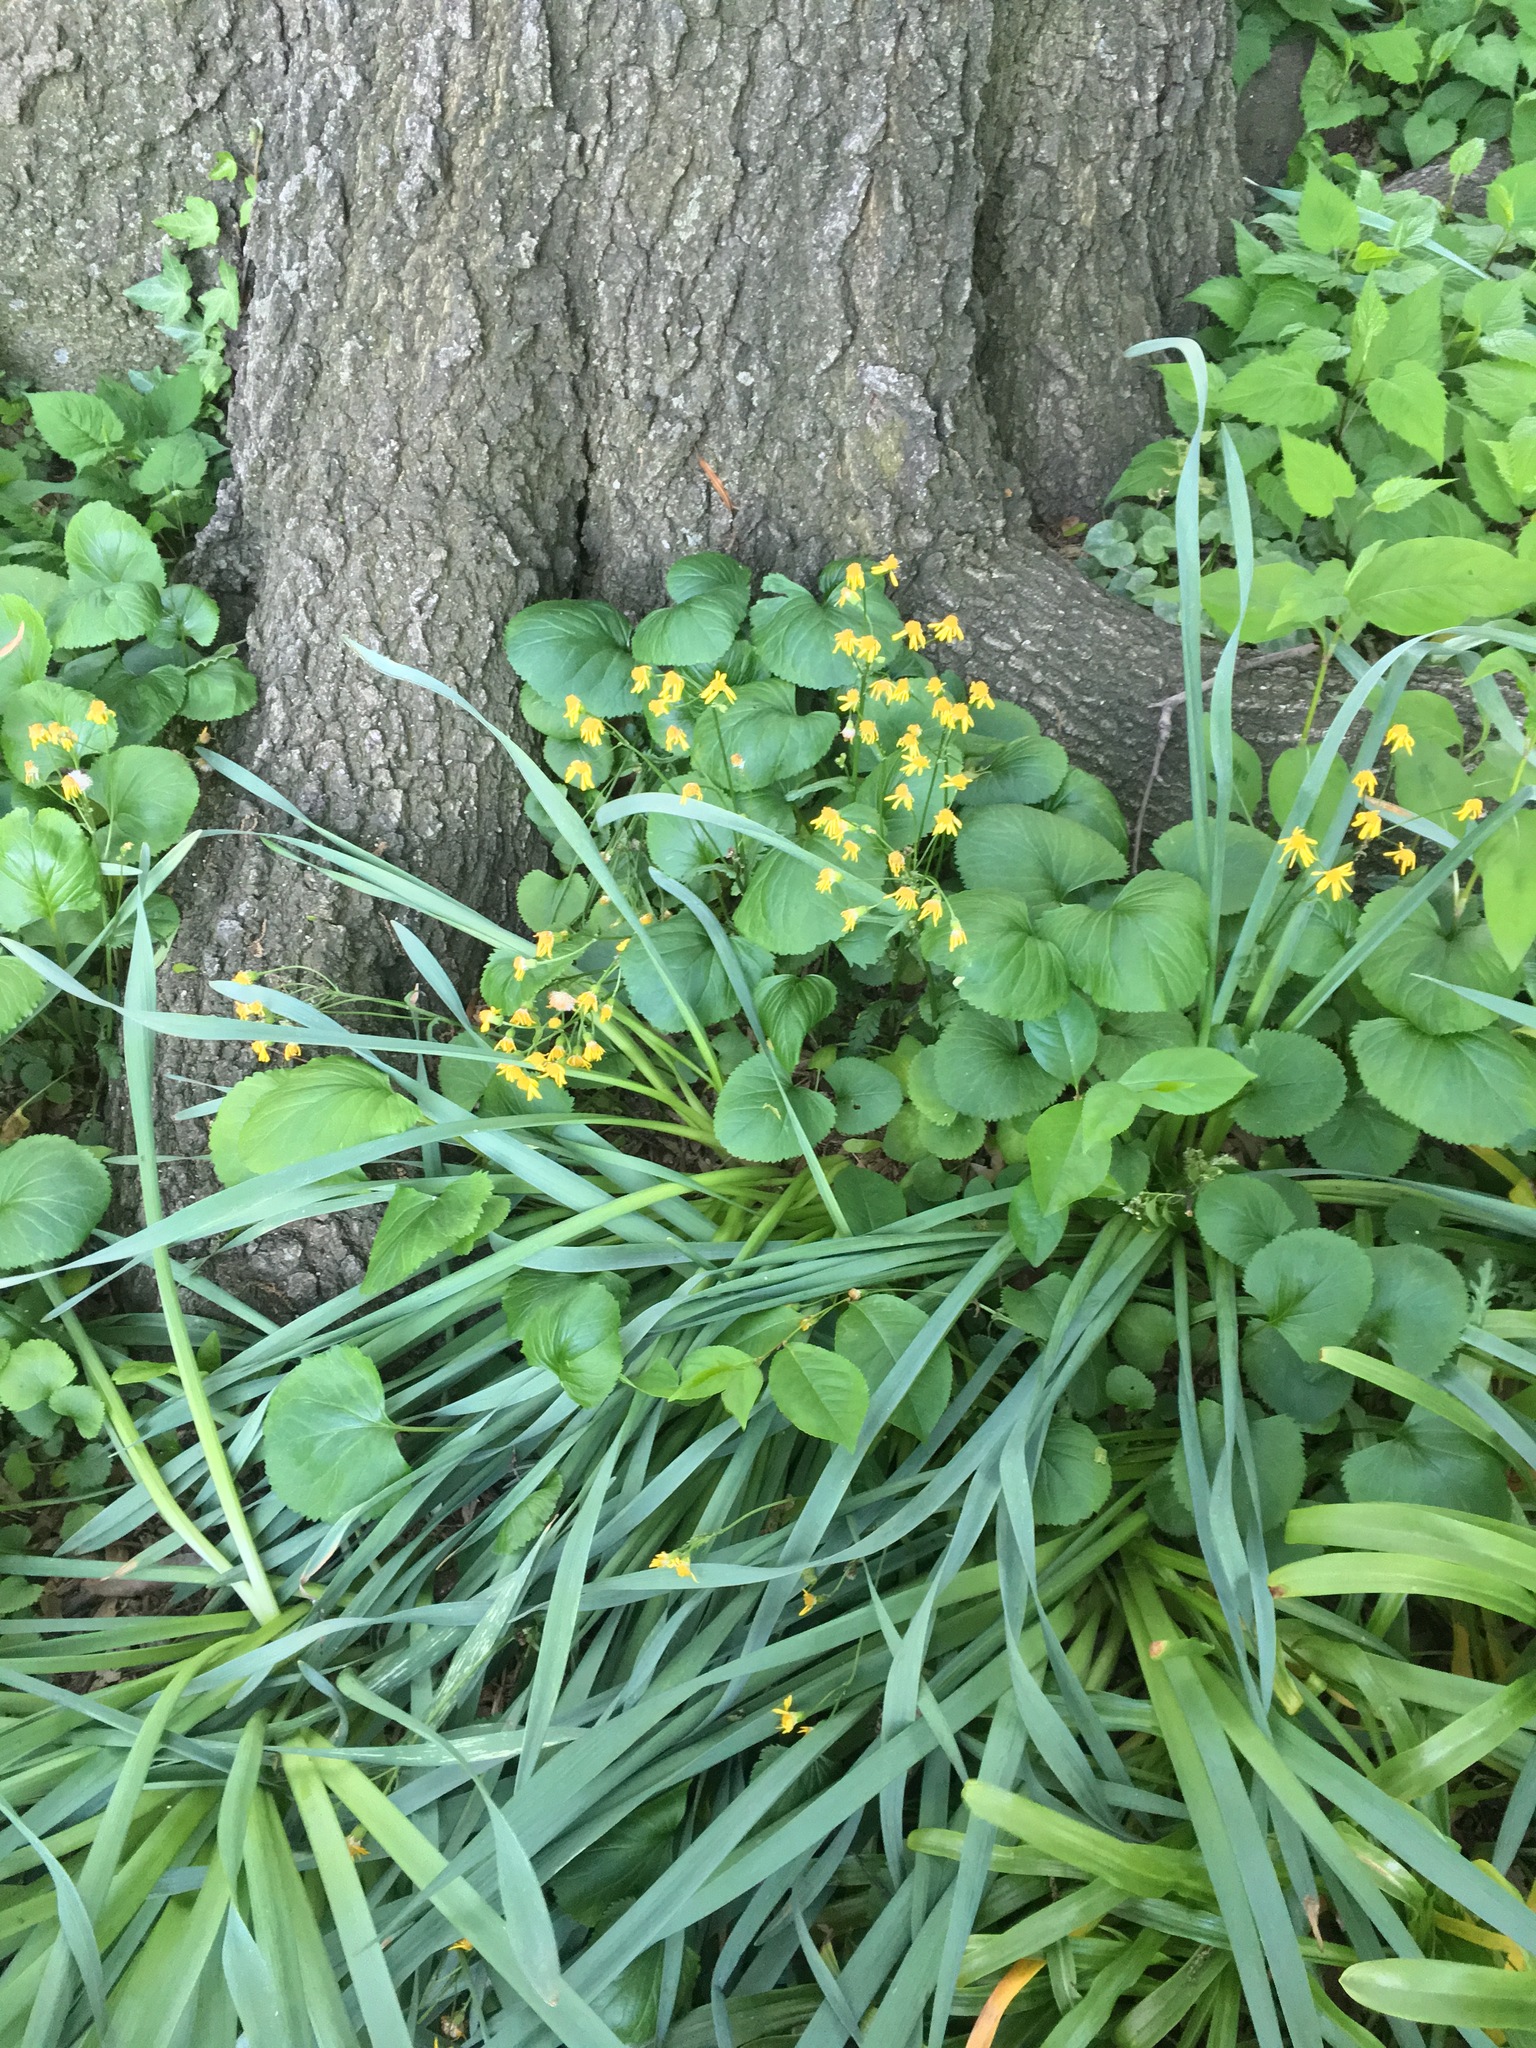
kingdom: Plantae
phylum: Tracheophyta
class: Magnoliopsida
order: Asterales
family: Asteraceae
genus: Packera
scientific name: Packera aurea
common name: Golden groundsel
